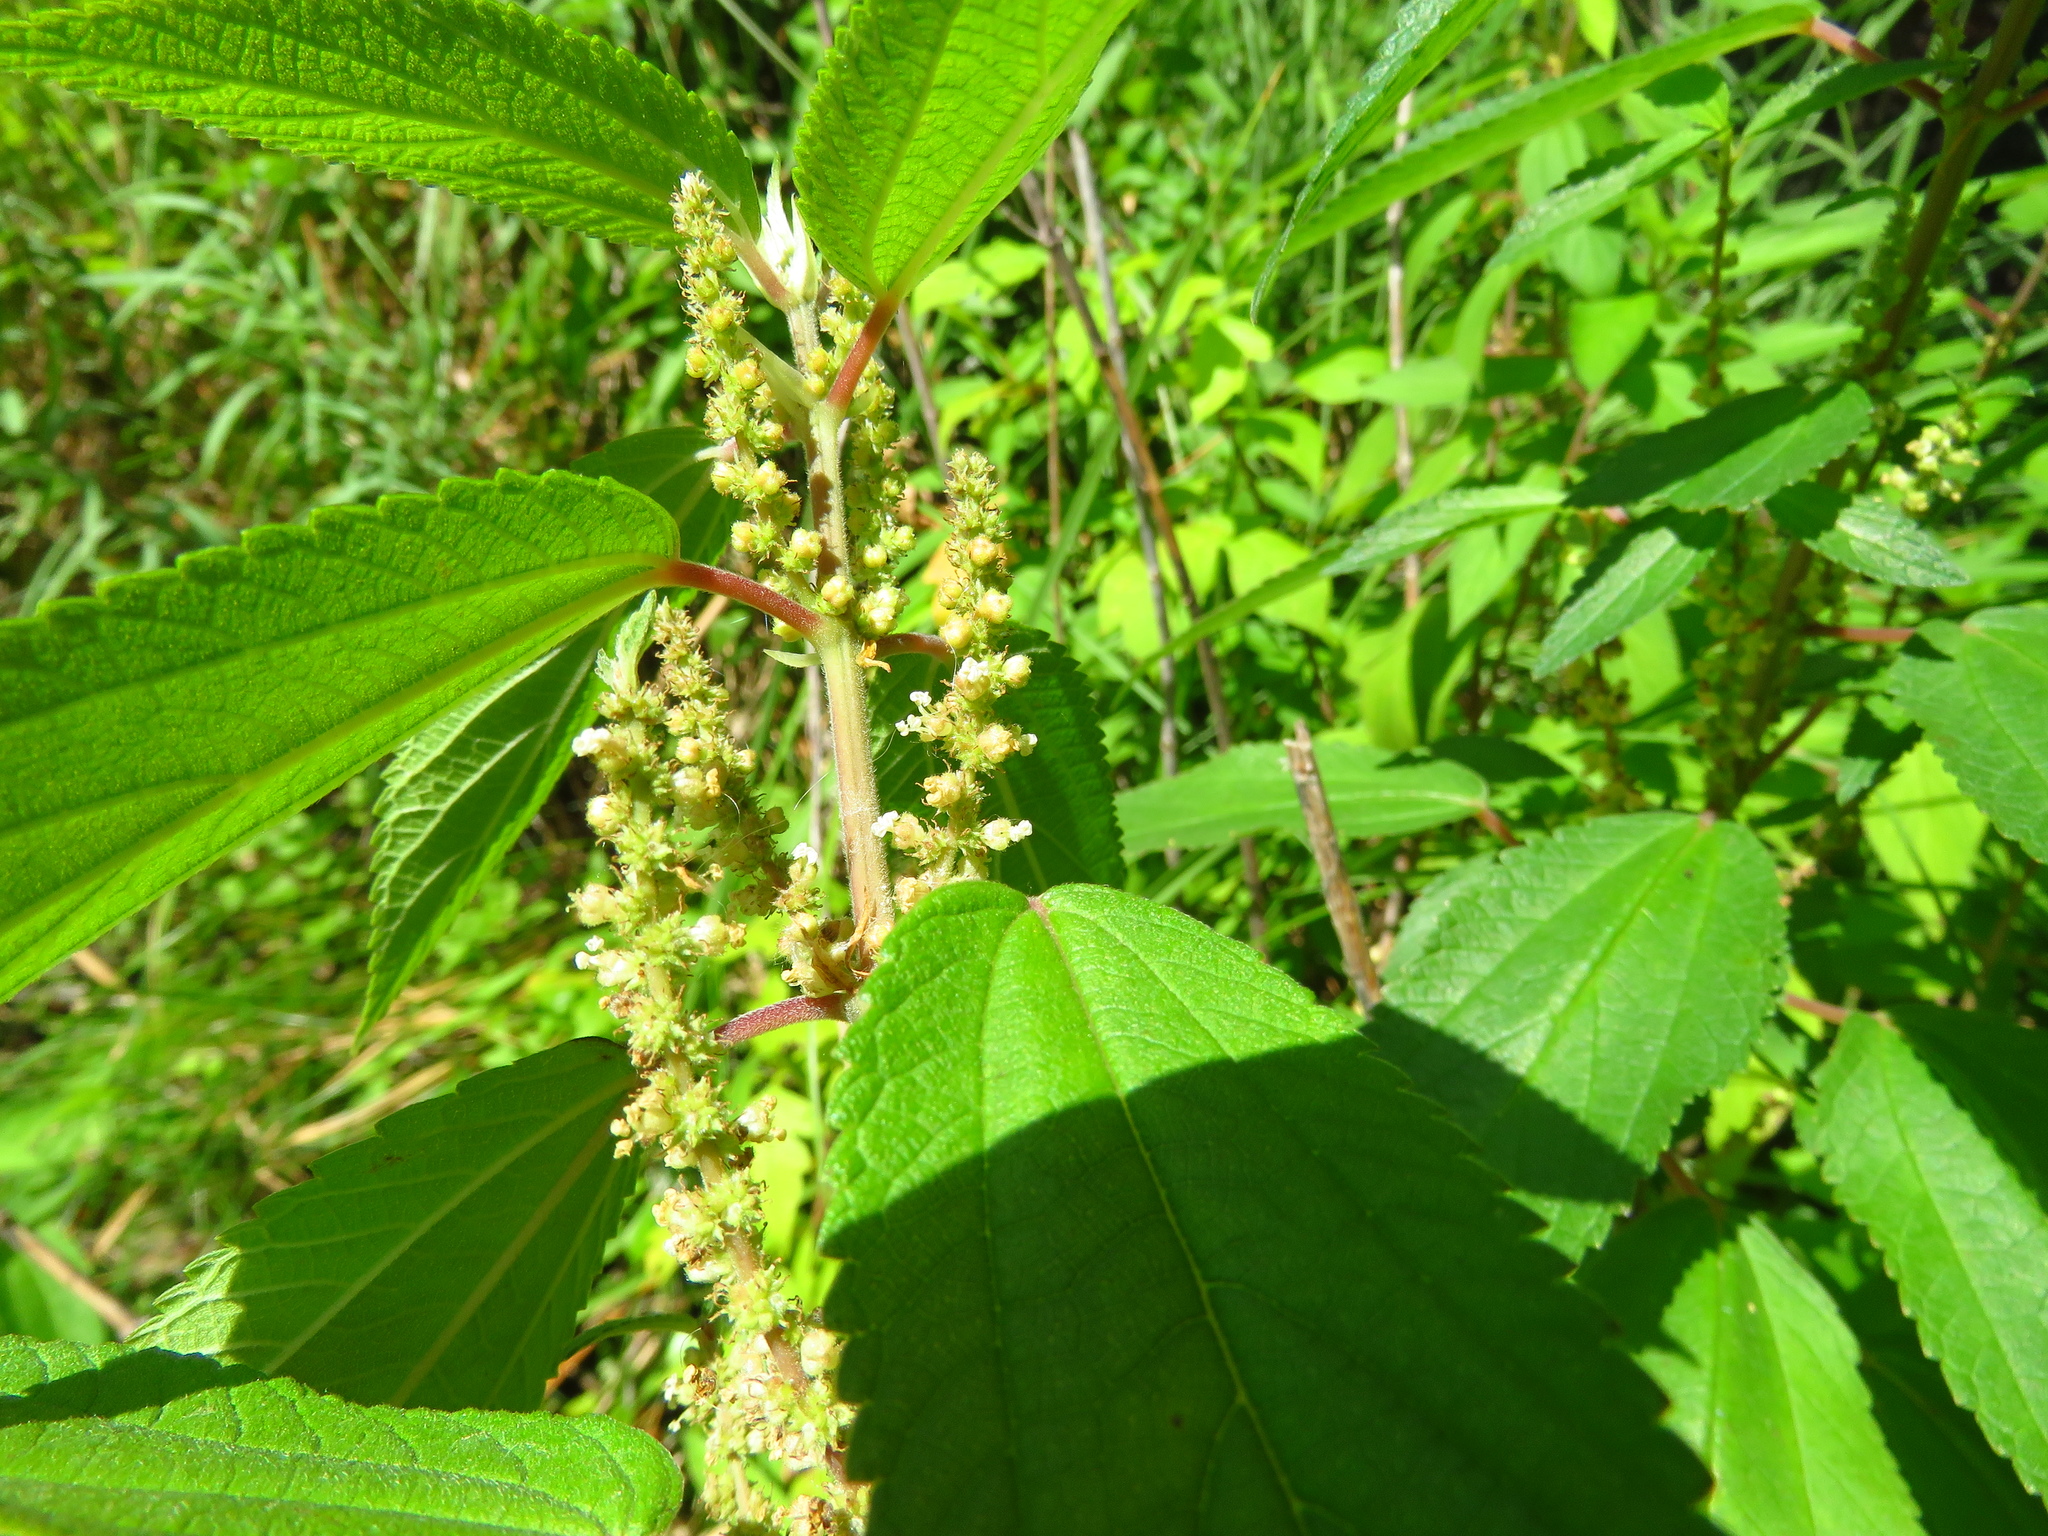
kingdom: Plantae
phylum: Tracheophyta
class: Magnoliopsida
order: Rosales
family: Urticaceae
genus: Boehmeria
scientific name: Boehmeria cylindrica
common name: Bog-hemp
